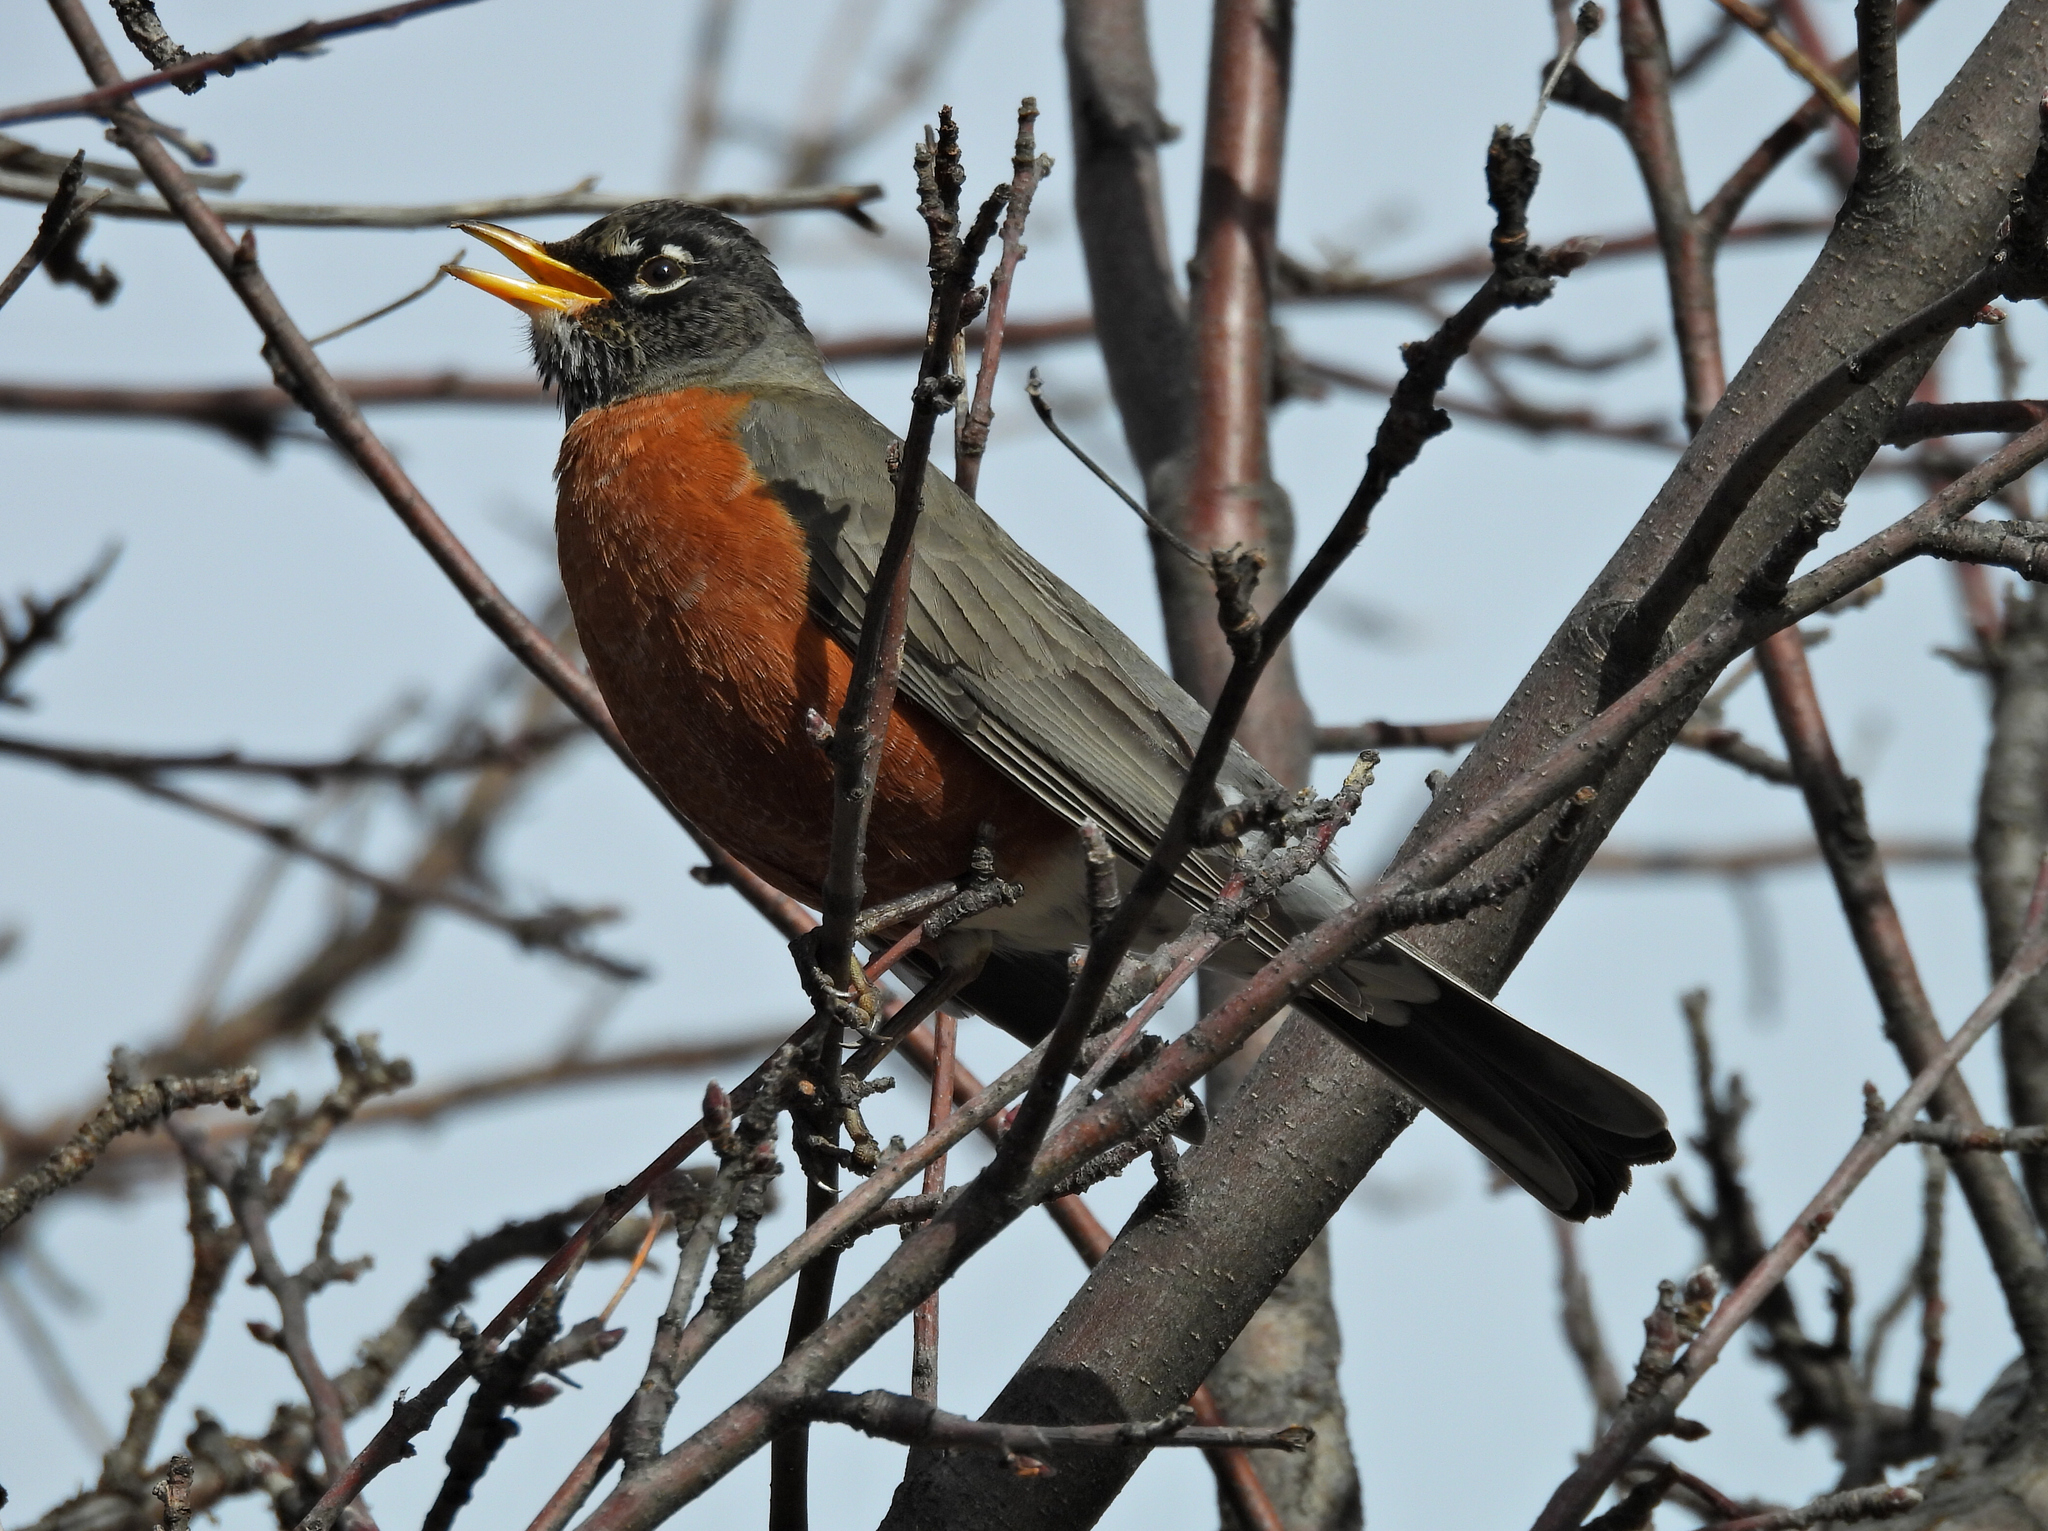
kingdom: Animalia
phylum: Chordata
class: Aves
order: Passeriformes
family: Turdidae
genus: Turdus
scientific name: Turdus migratorius
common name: American robin
